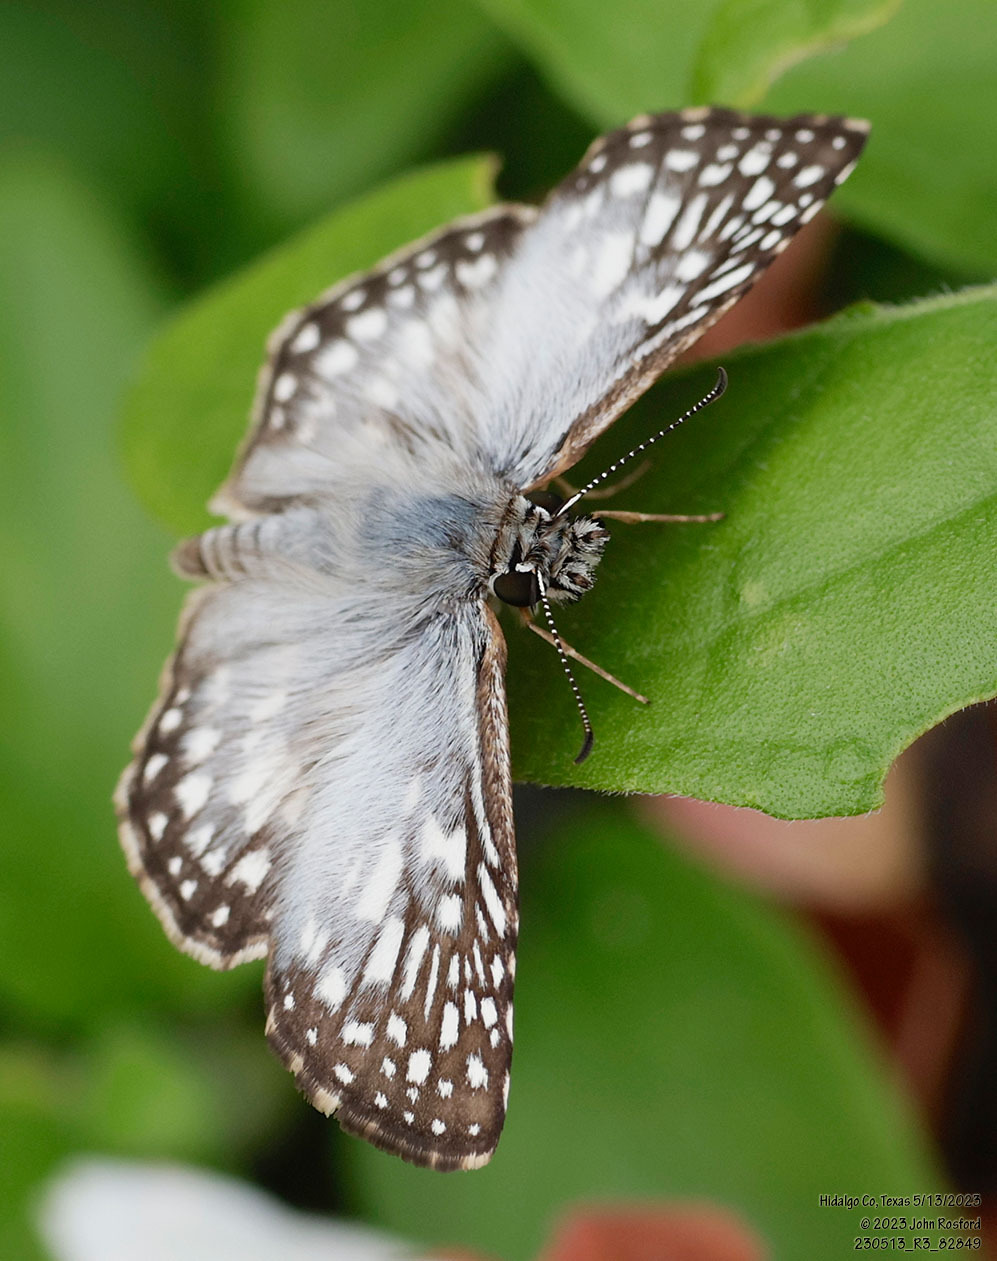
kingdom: Animalia
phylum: Arthropoda
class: Insecta
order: Lepidoptera
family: Hesperiidae
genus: Pyrgus
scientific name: Pyrgus oileus
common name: Tropical checkered-skipper
